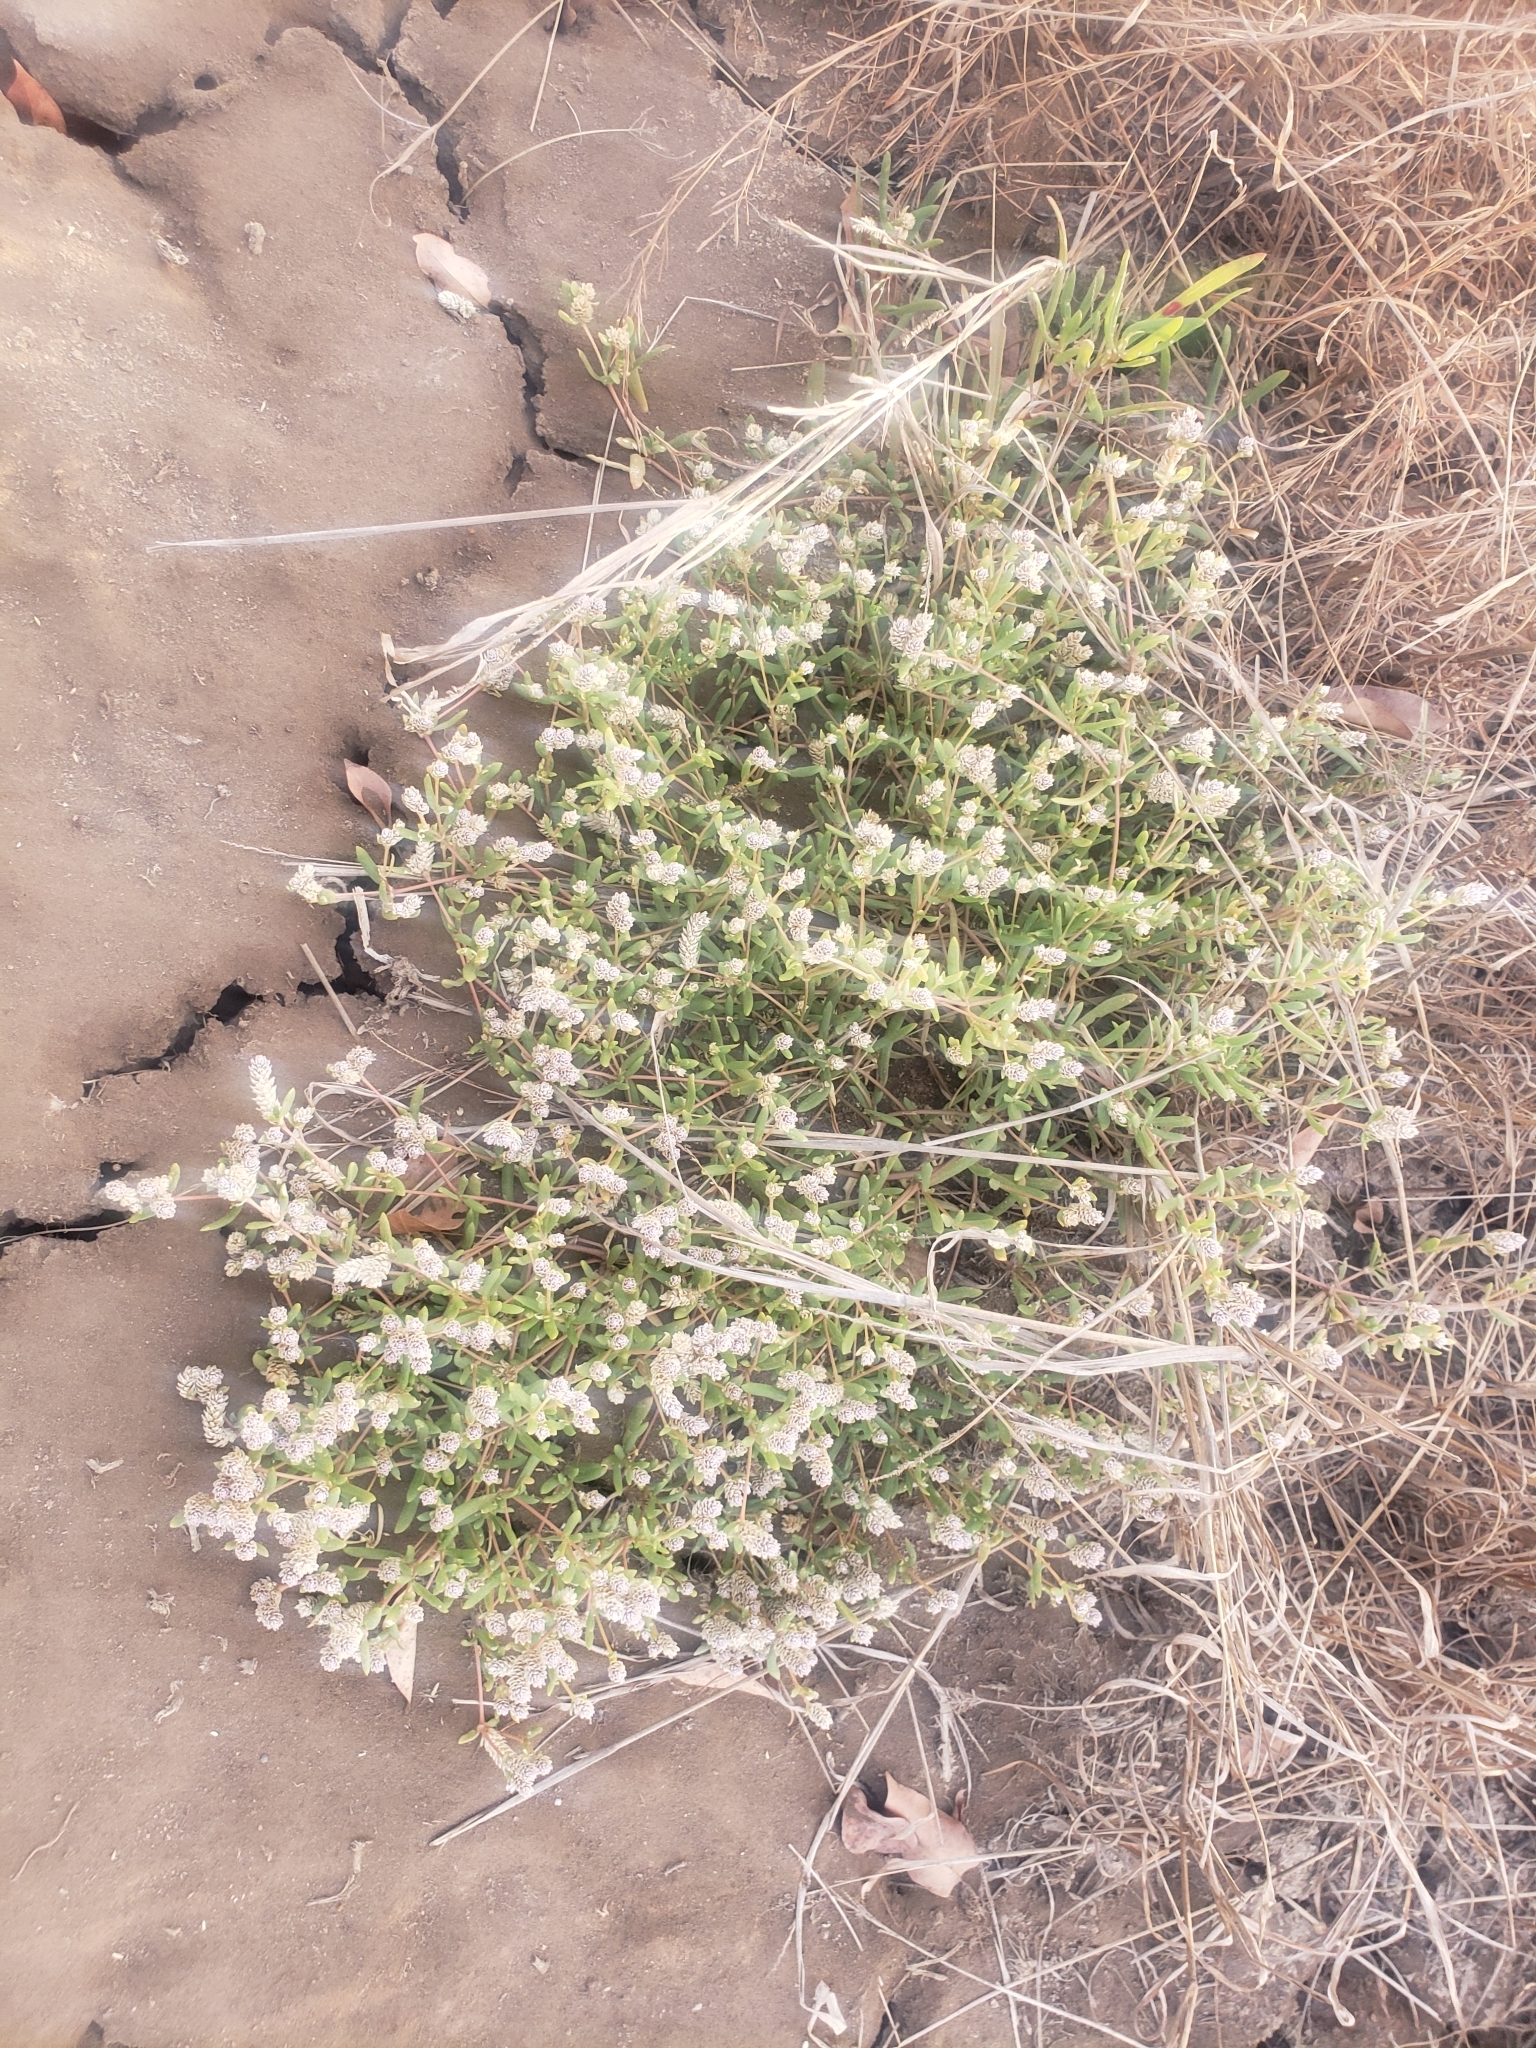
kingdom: Plantae
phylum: Tracheophyta
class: Magnoliopsida
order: Caryophyllales
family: Amaranthaceae
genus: Gomphrena
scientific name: Gomphrena vermicularis
